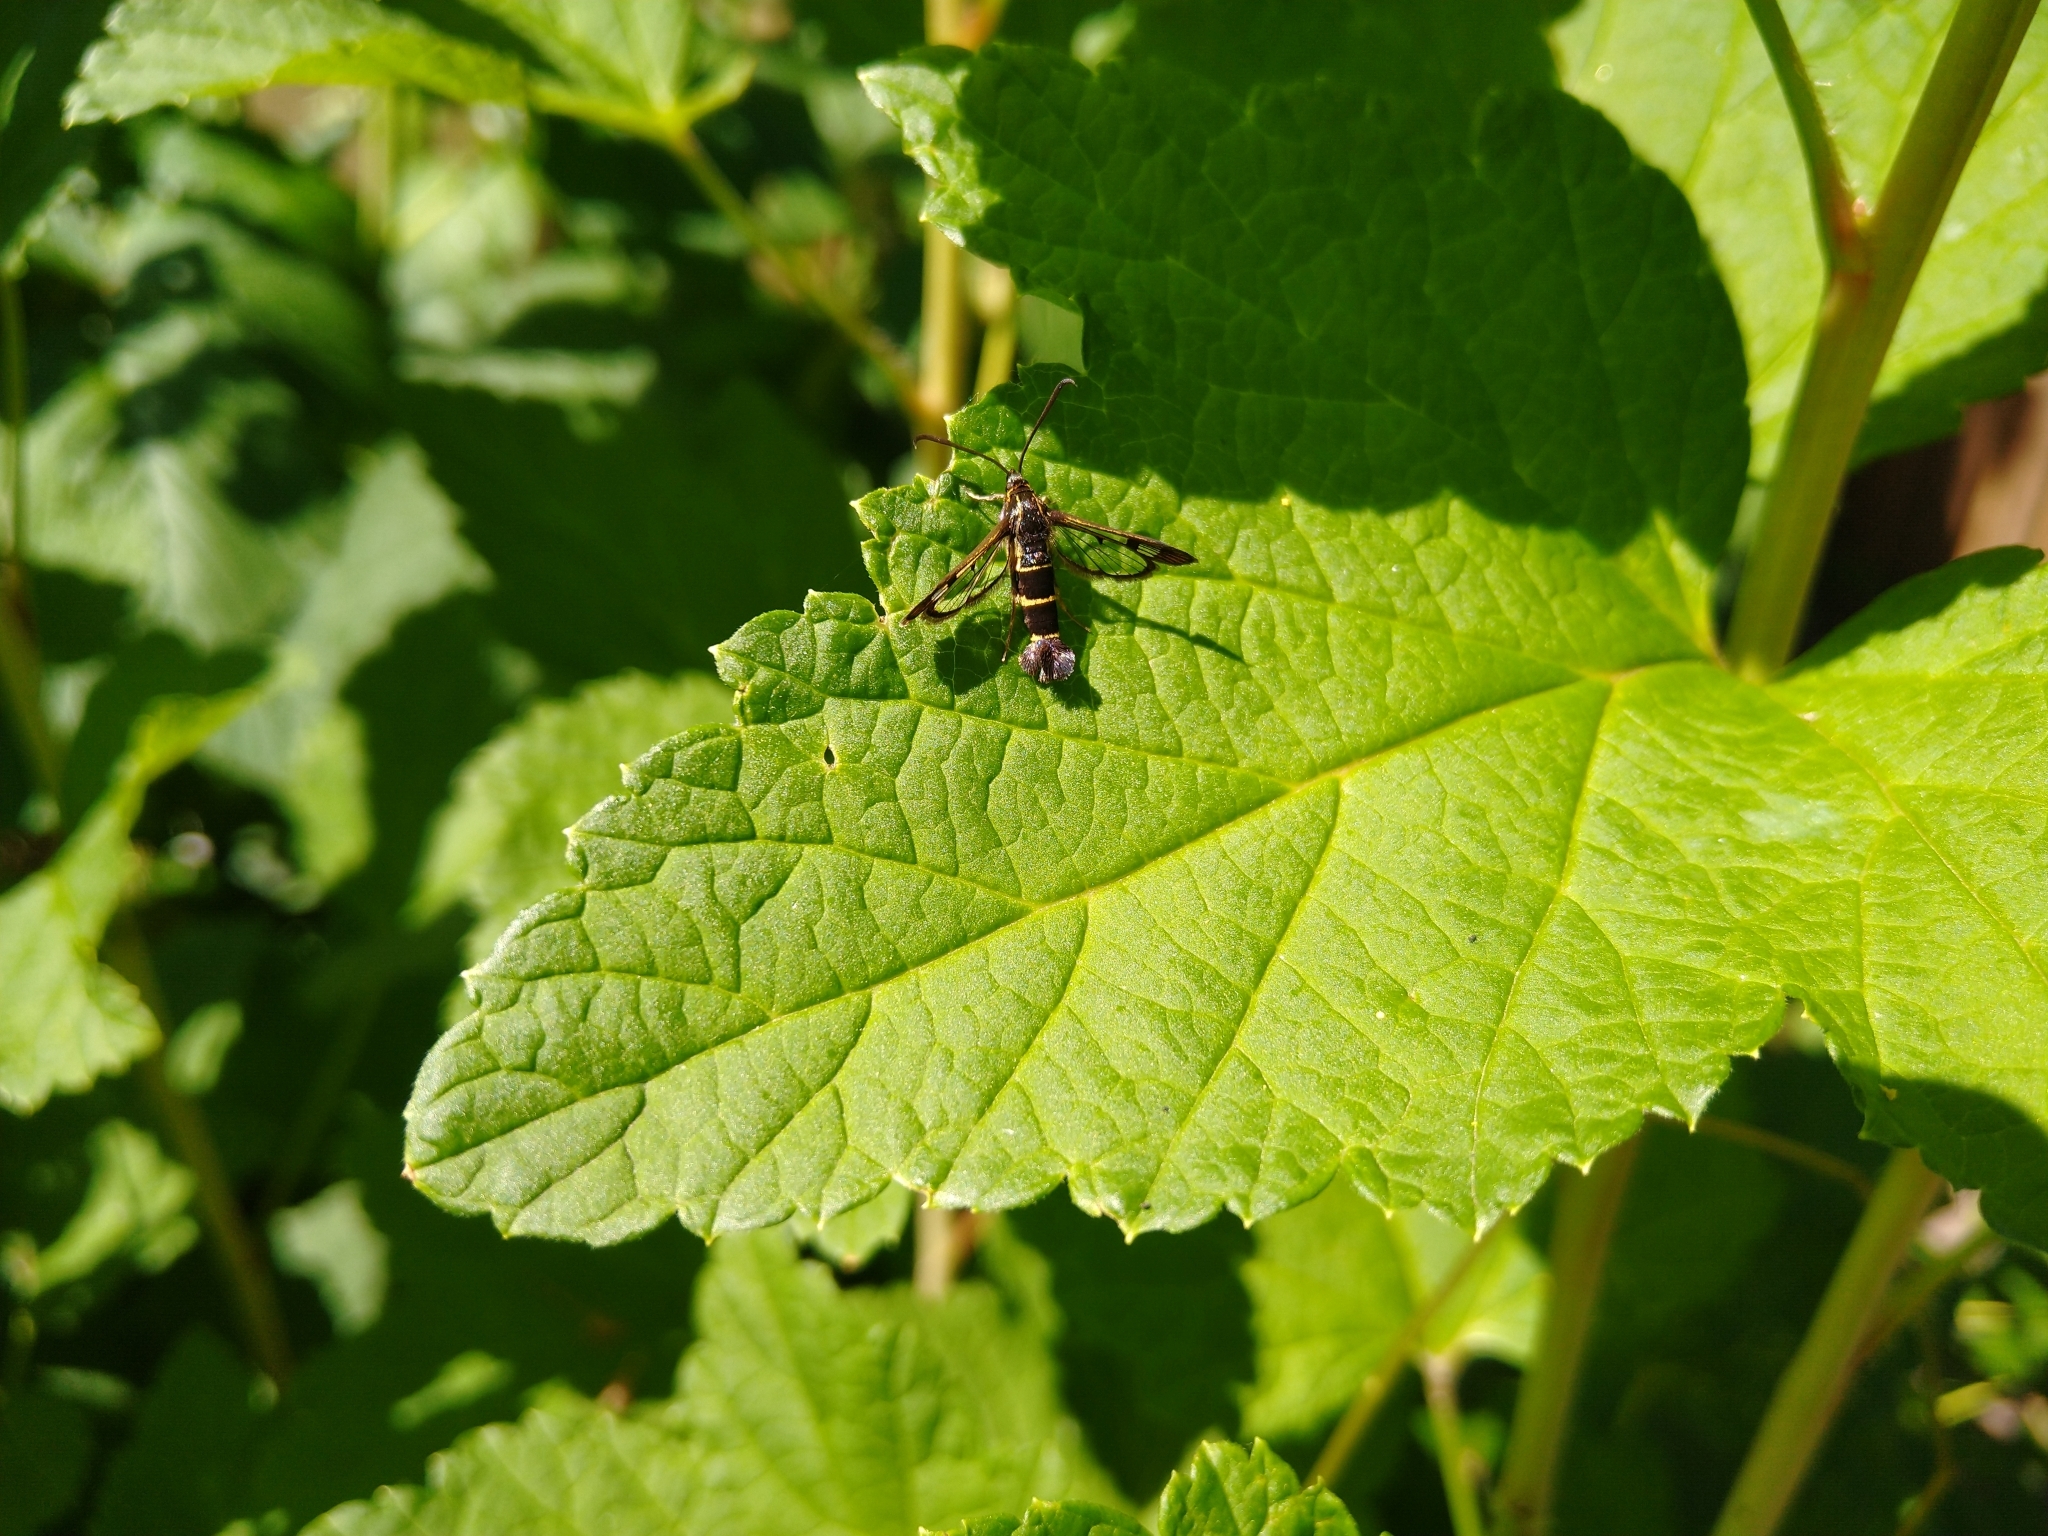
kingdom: Animalia
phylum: Arthropoda
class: Insecta
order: Lepidoptera
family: Sesiidae
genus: Synanthedon
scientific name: Synanthedon tipuliformis
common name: Currant clearwing
